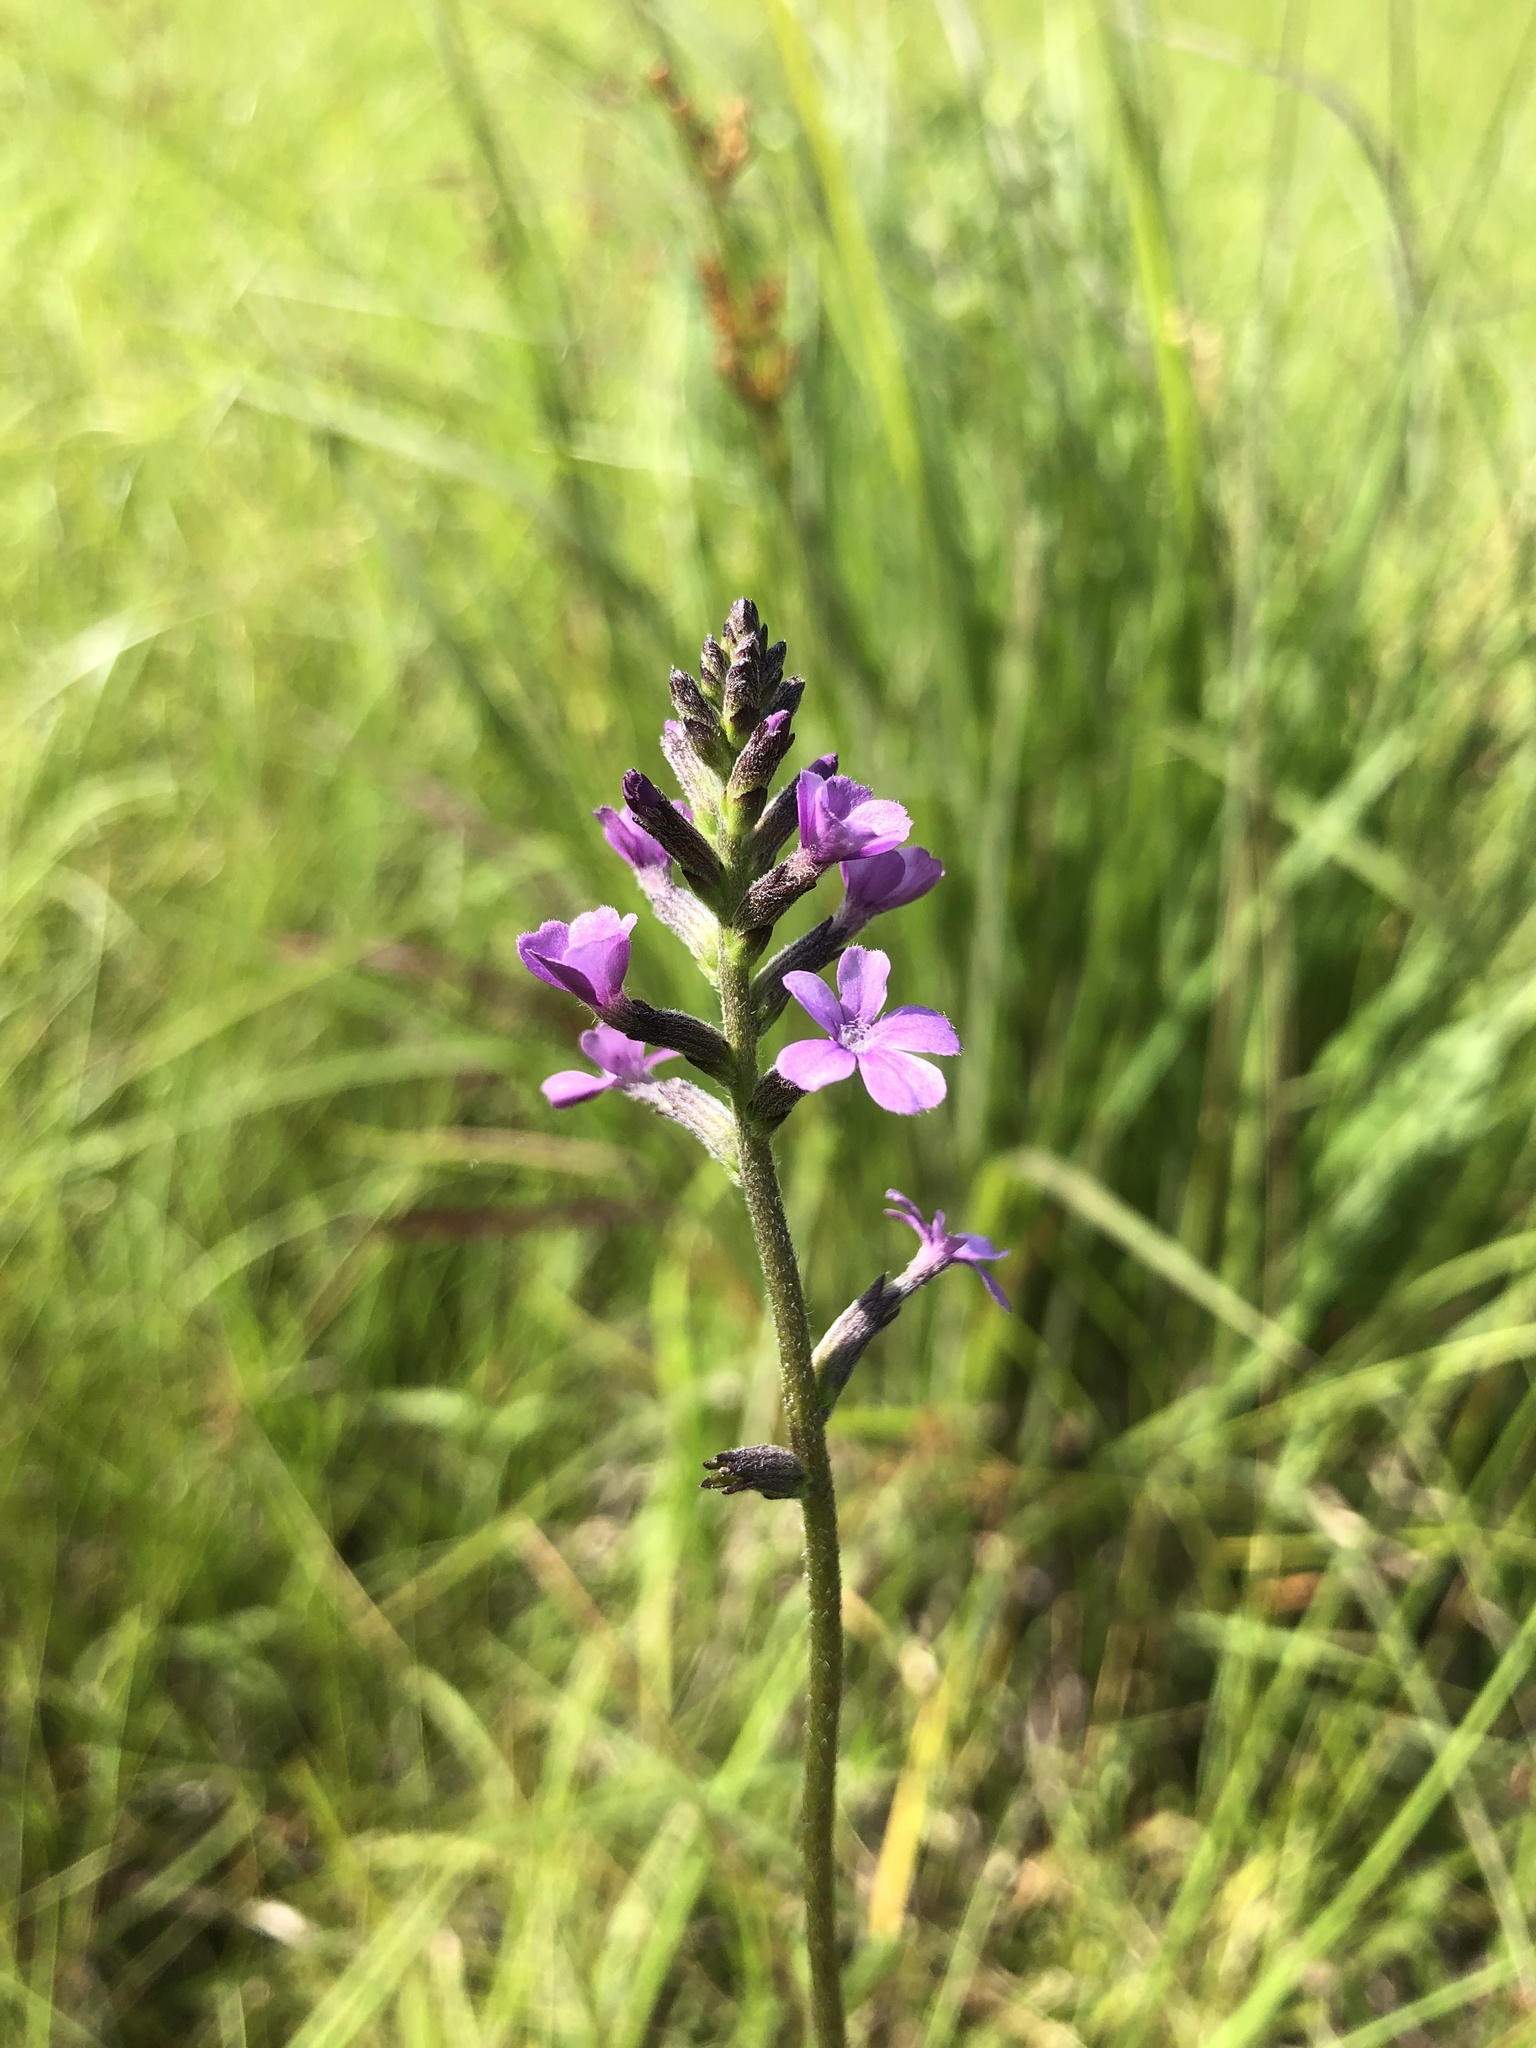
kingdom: Plantae
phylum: Tracheophyta
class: Magnoliopsida
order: Lamiales
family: Orobanchaceae
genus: Buchnera
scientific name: Buchnera floridana
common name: Florida bluehearts
